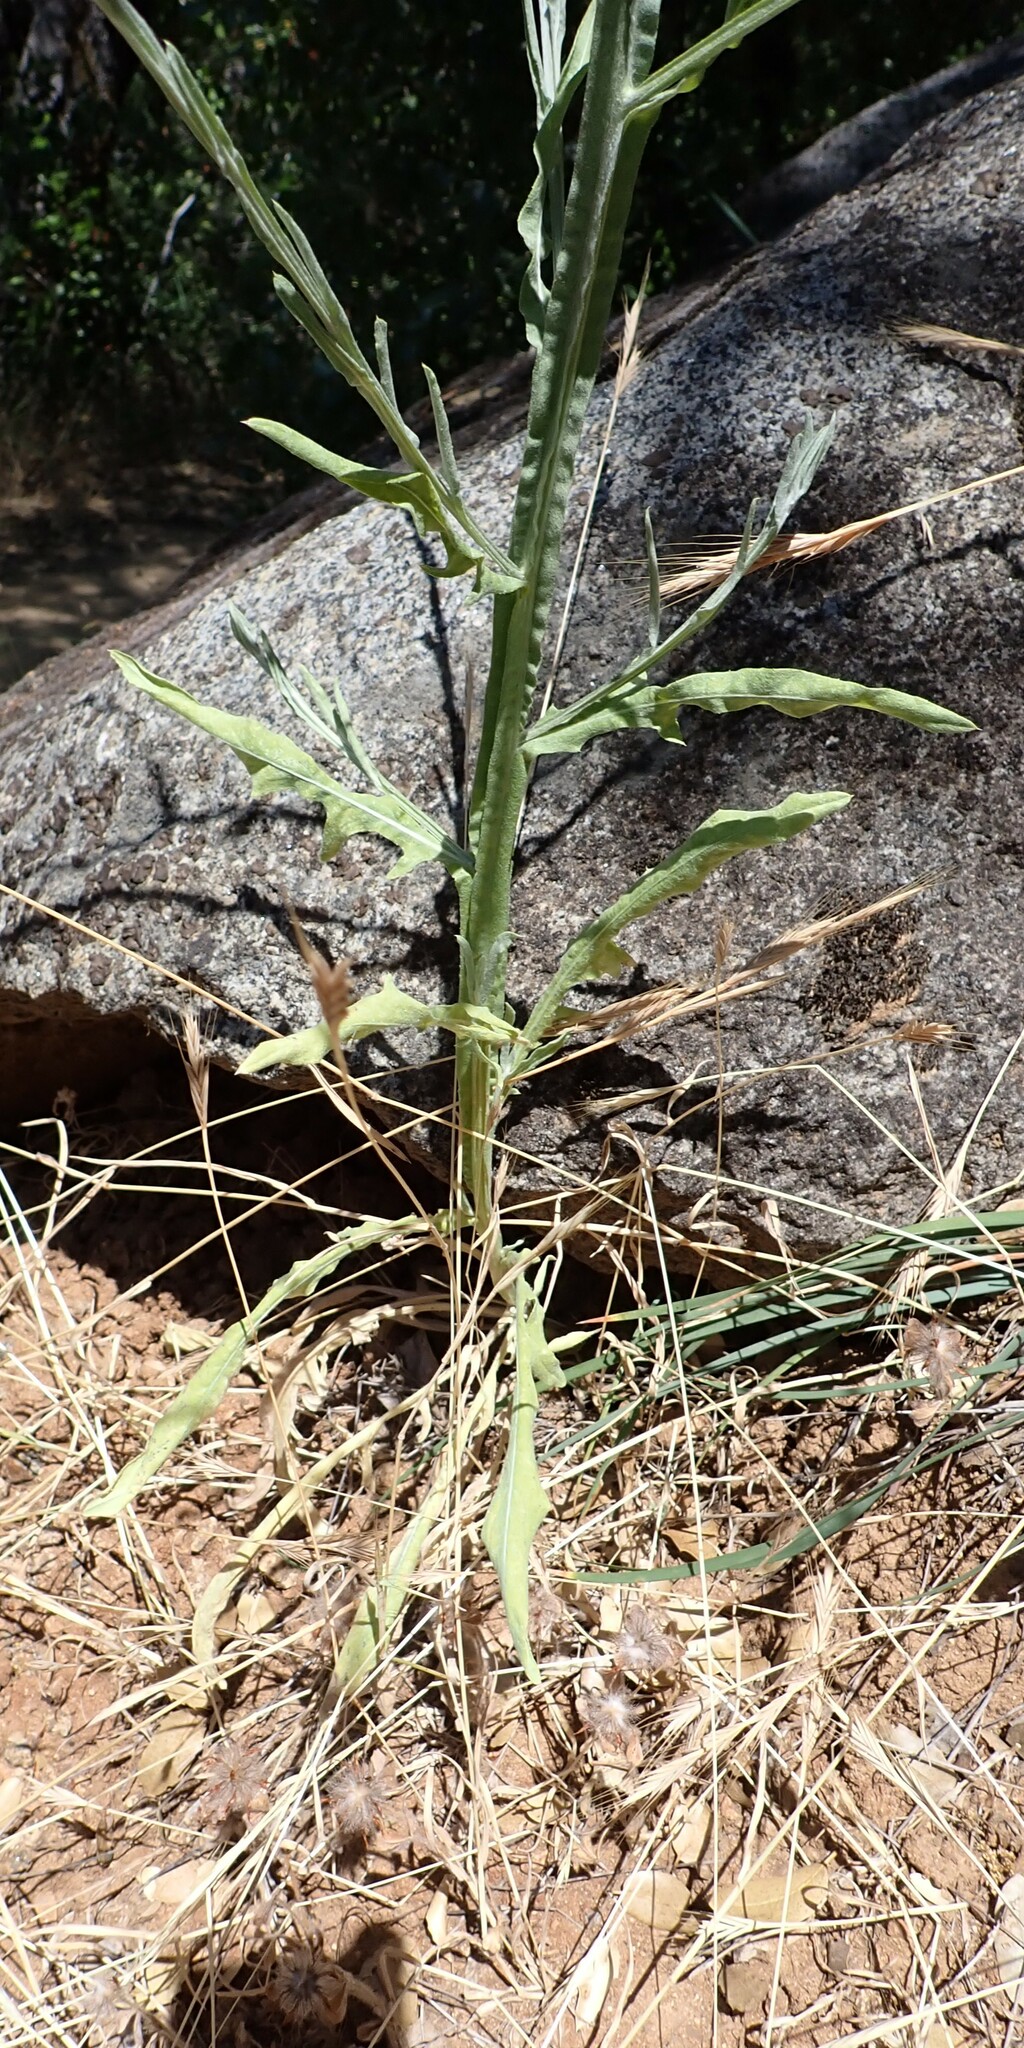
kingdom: Plantae
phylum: Tracheophyta
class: Magnoliopsida
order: Asterales
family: Asteraceae
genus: Centaurea
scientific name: Centaurea solstitialis
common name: Yellow star-thistle
